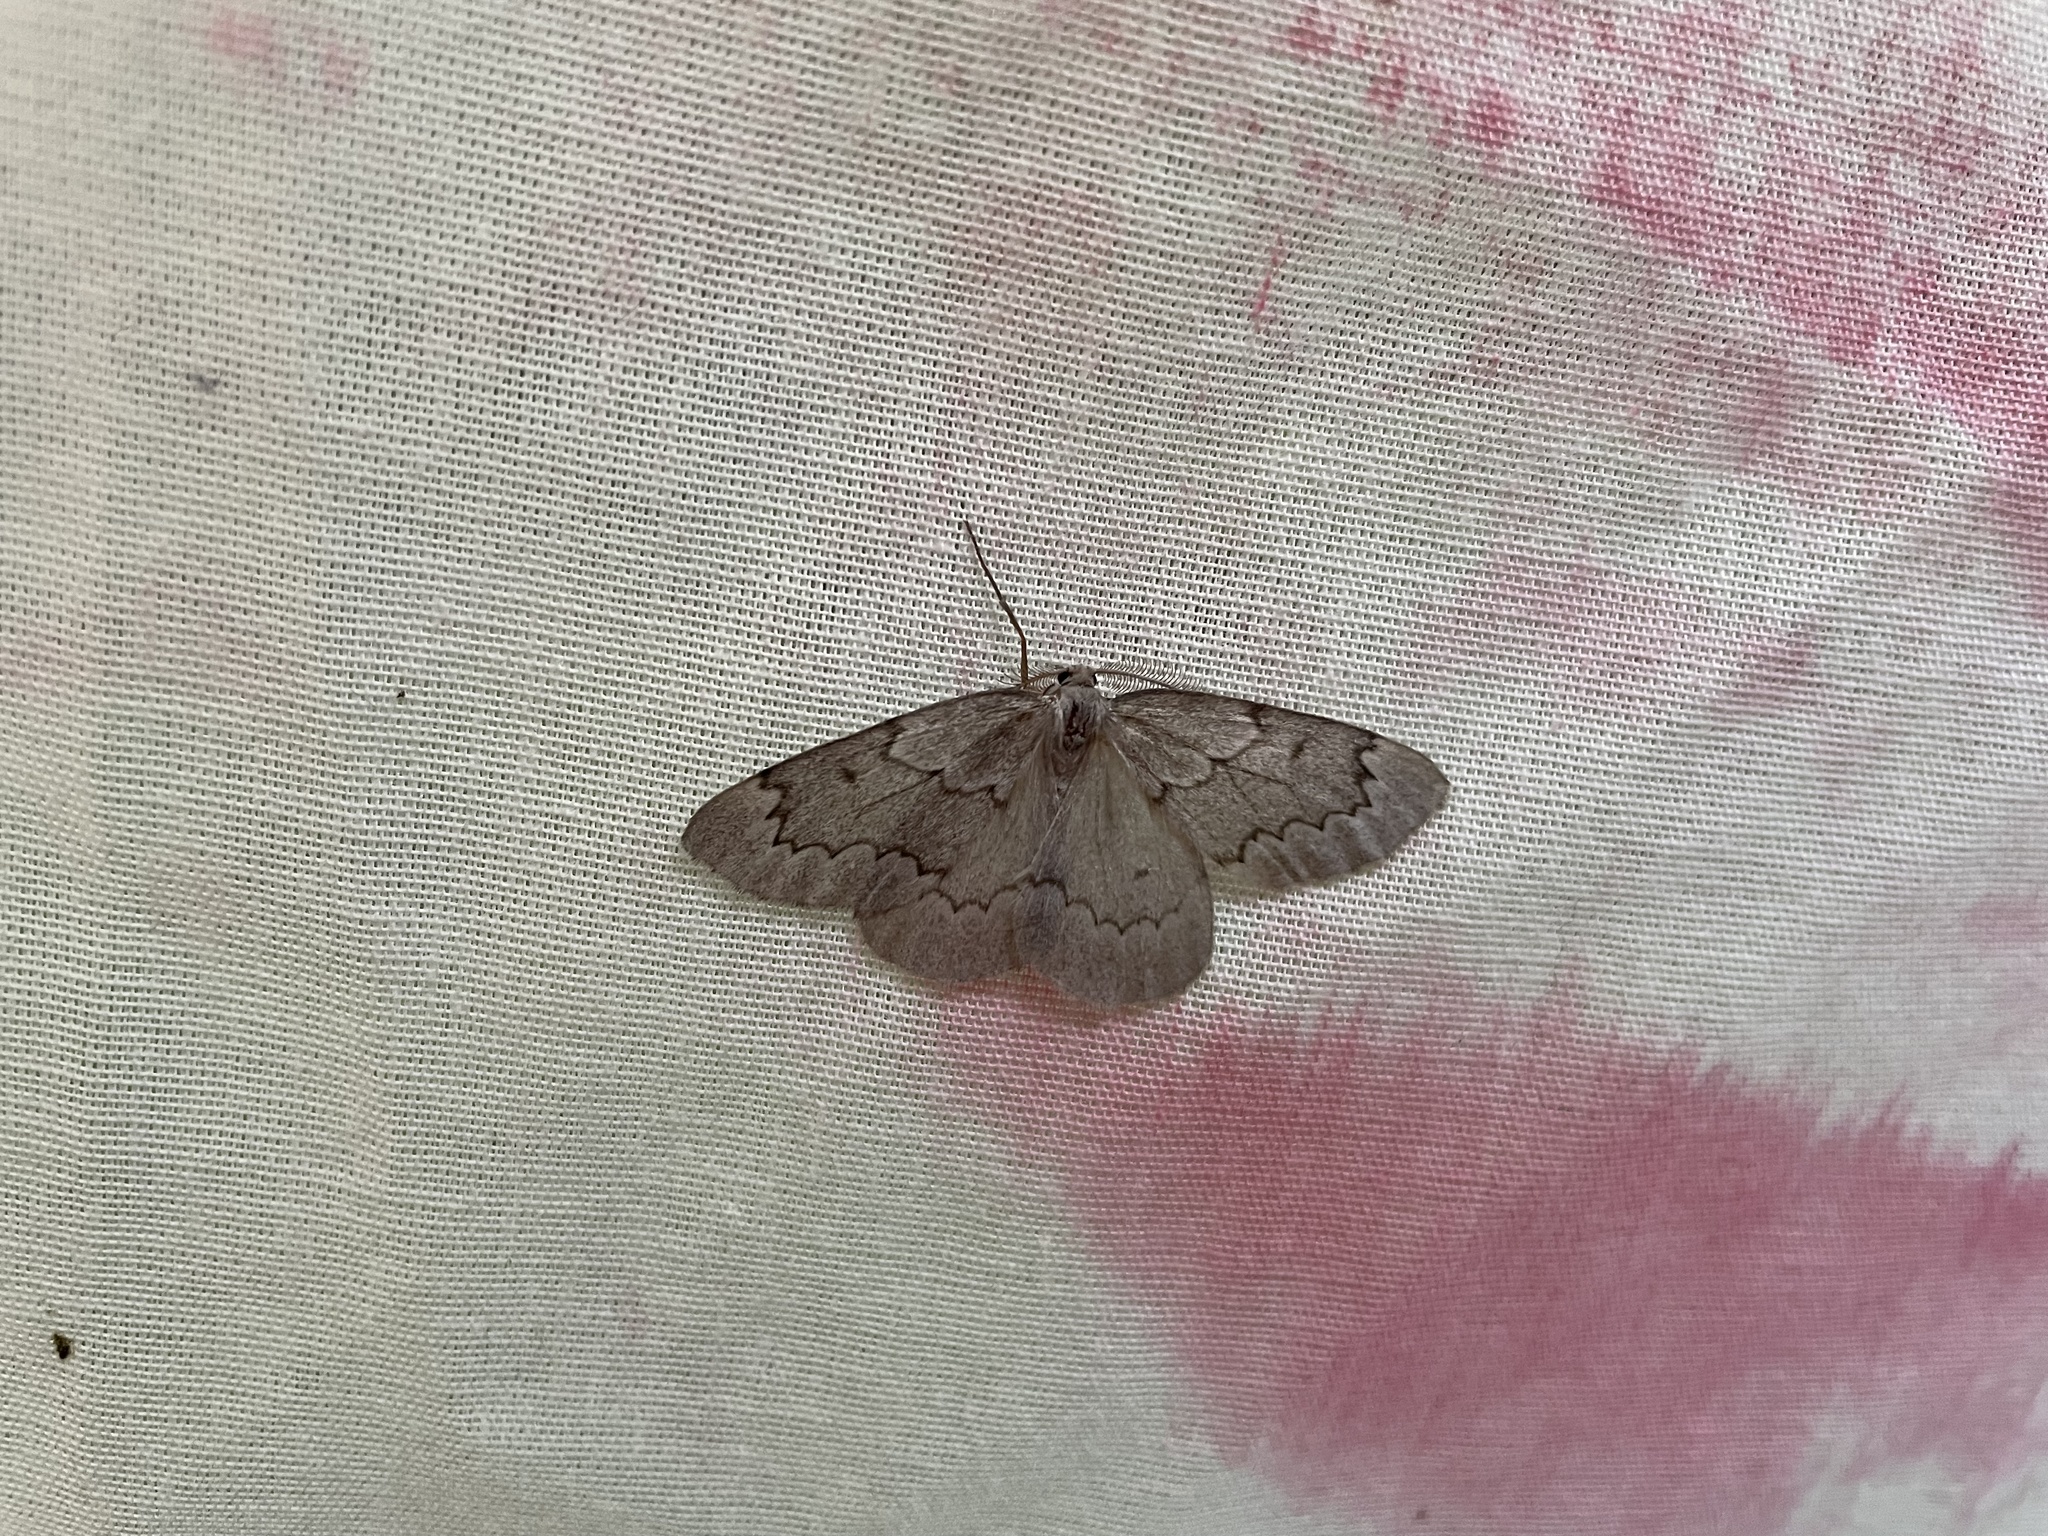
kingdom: Animalia
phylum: Arthropoda
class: Insecta
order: Lepidoptera
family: Geometridae
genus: Nepytia
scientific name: Nepytia pellucidaria
